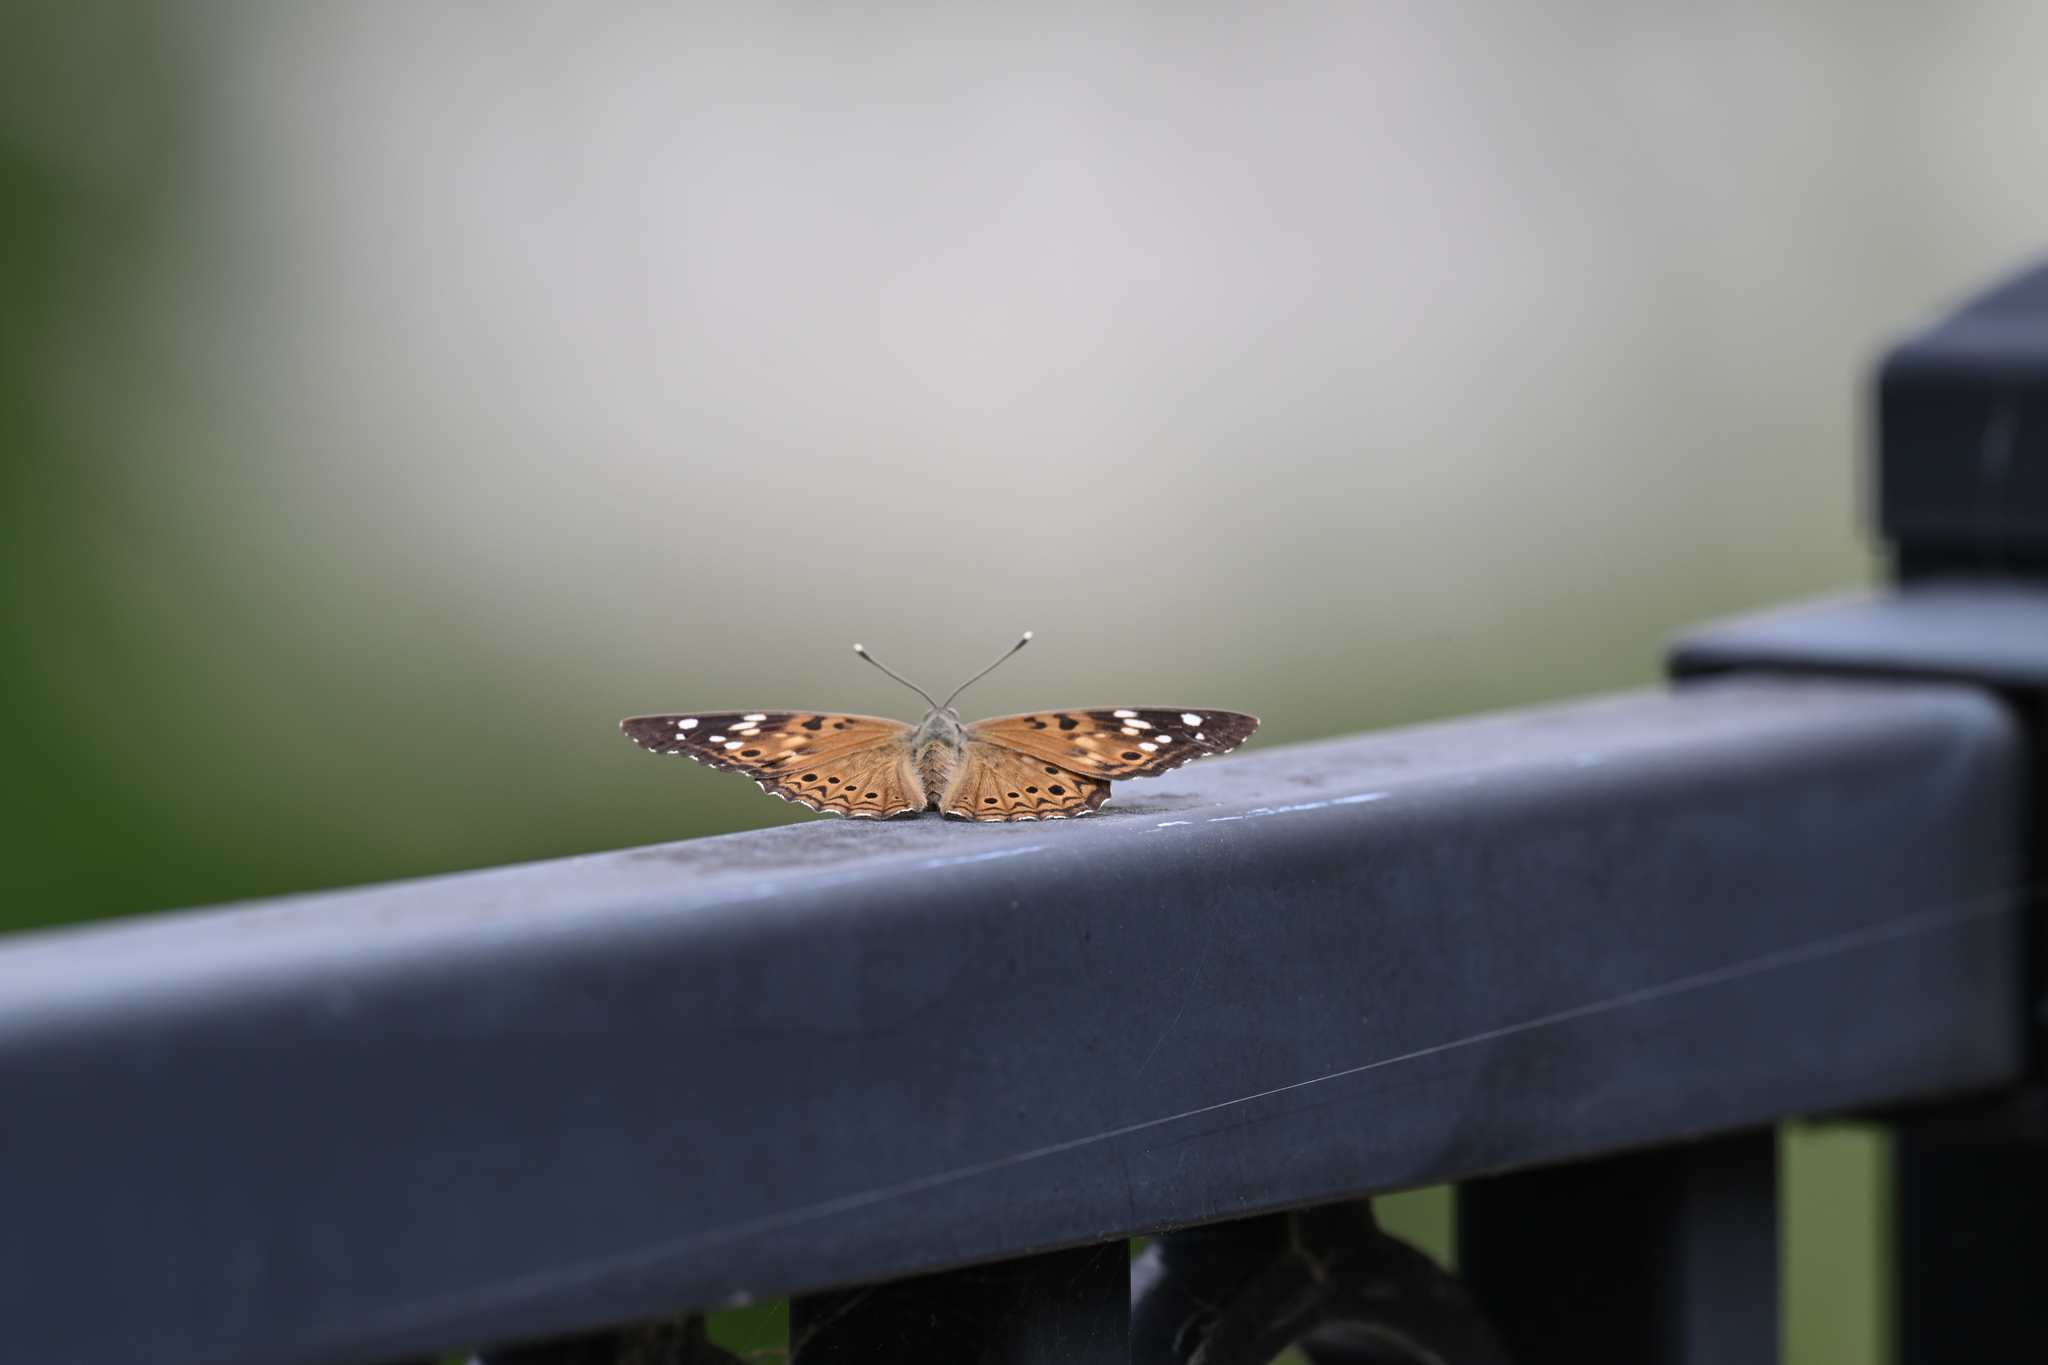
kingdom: Animalia
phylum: Arthropoda
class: Insecta
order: Lepidoptera
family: Nymphalidae
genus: Asterocampa
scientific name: Asterocampa celtis
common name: Hackberry emperor
